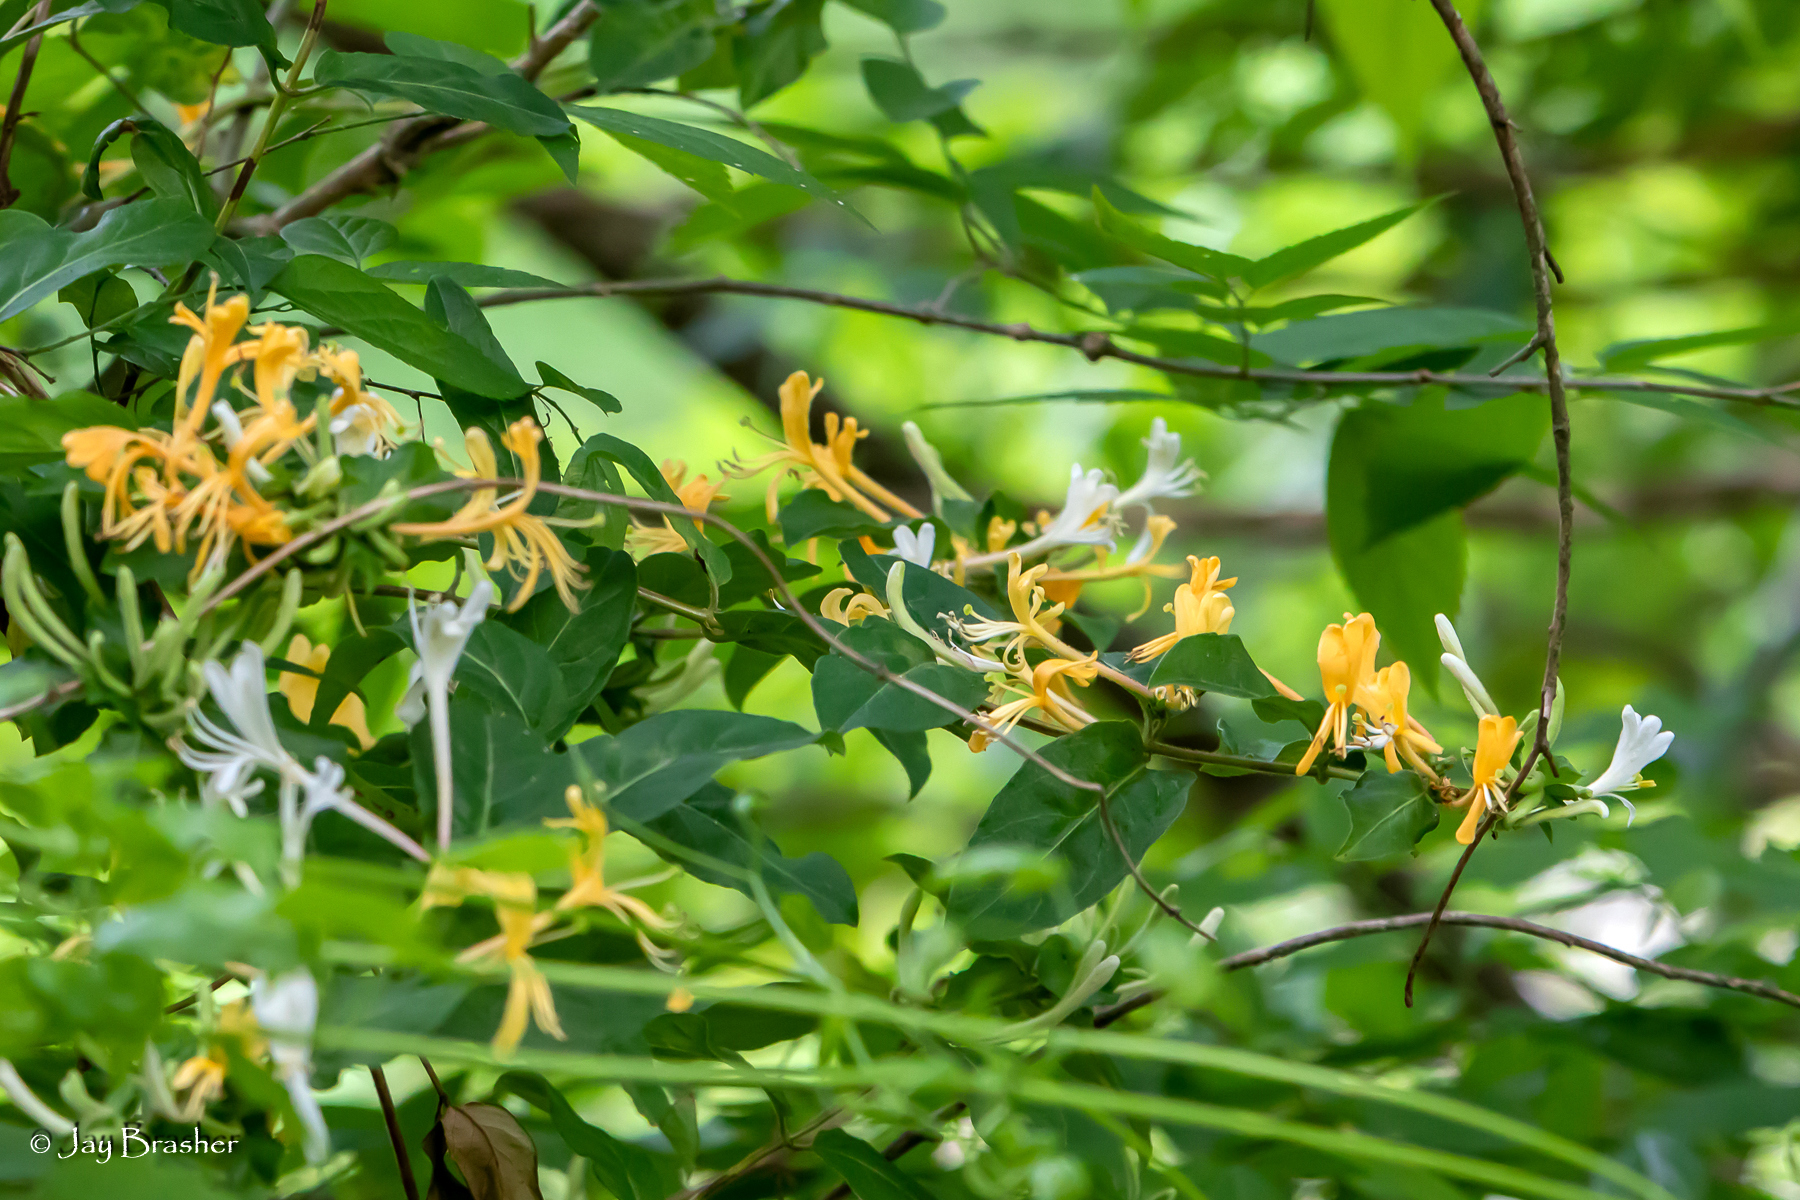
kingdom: Plantae
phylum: Tracheophyta
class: Magnoliopsida
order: Dipsacales
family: Caprifoliaceae
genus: Lonicera
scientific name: Lonicera japonica
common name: Japanese honeysuckle
